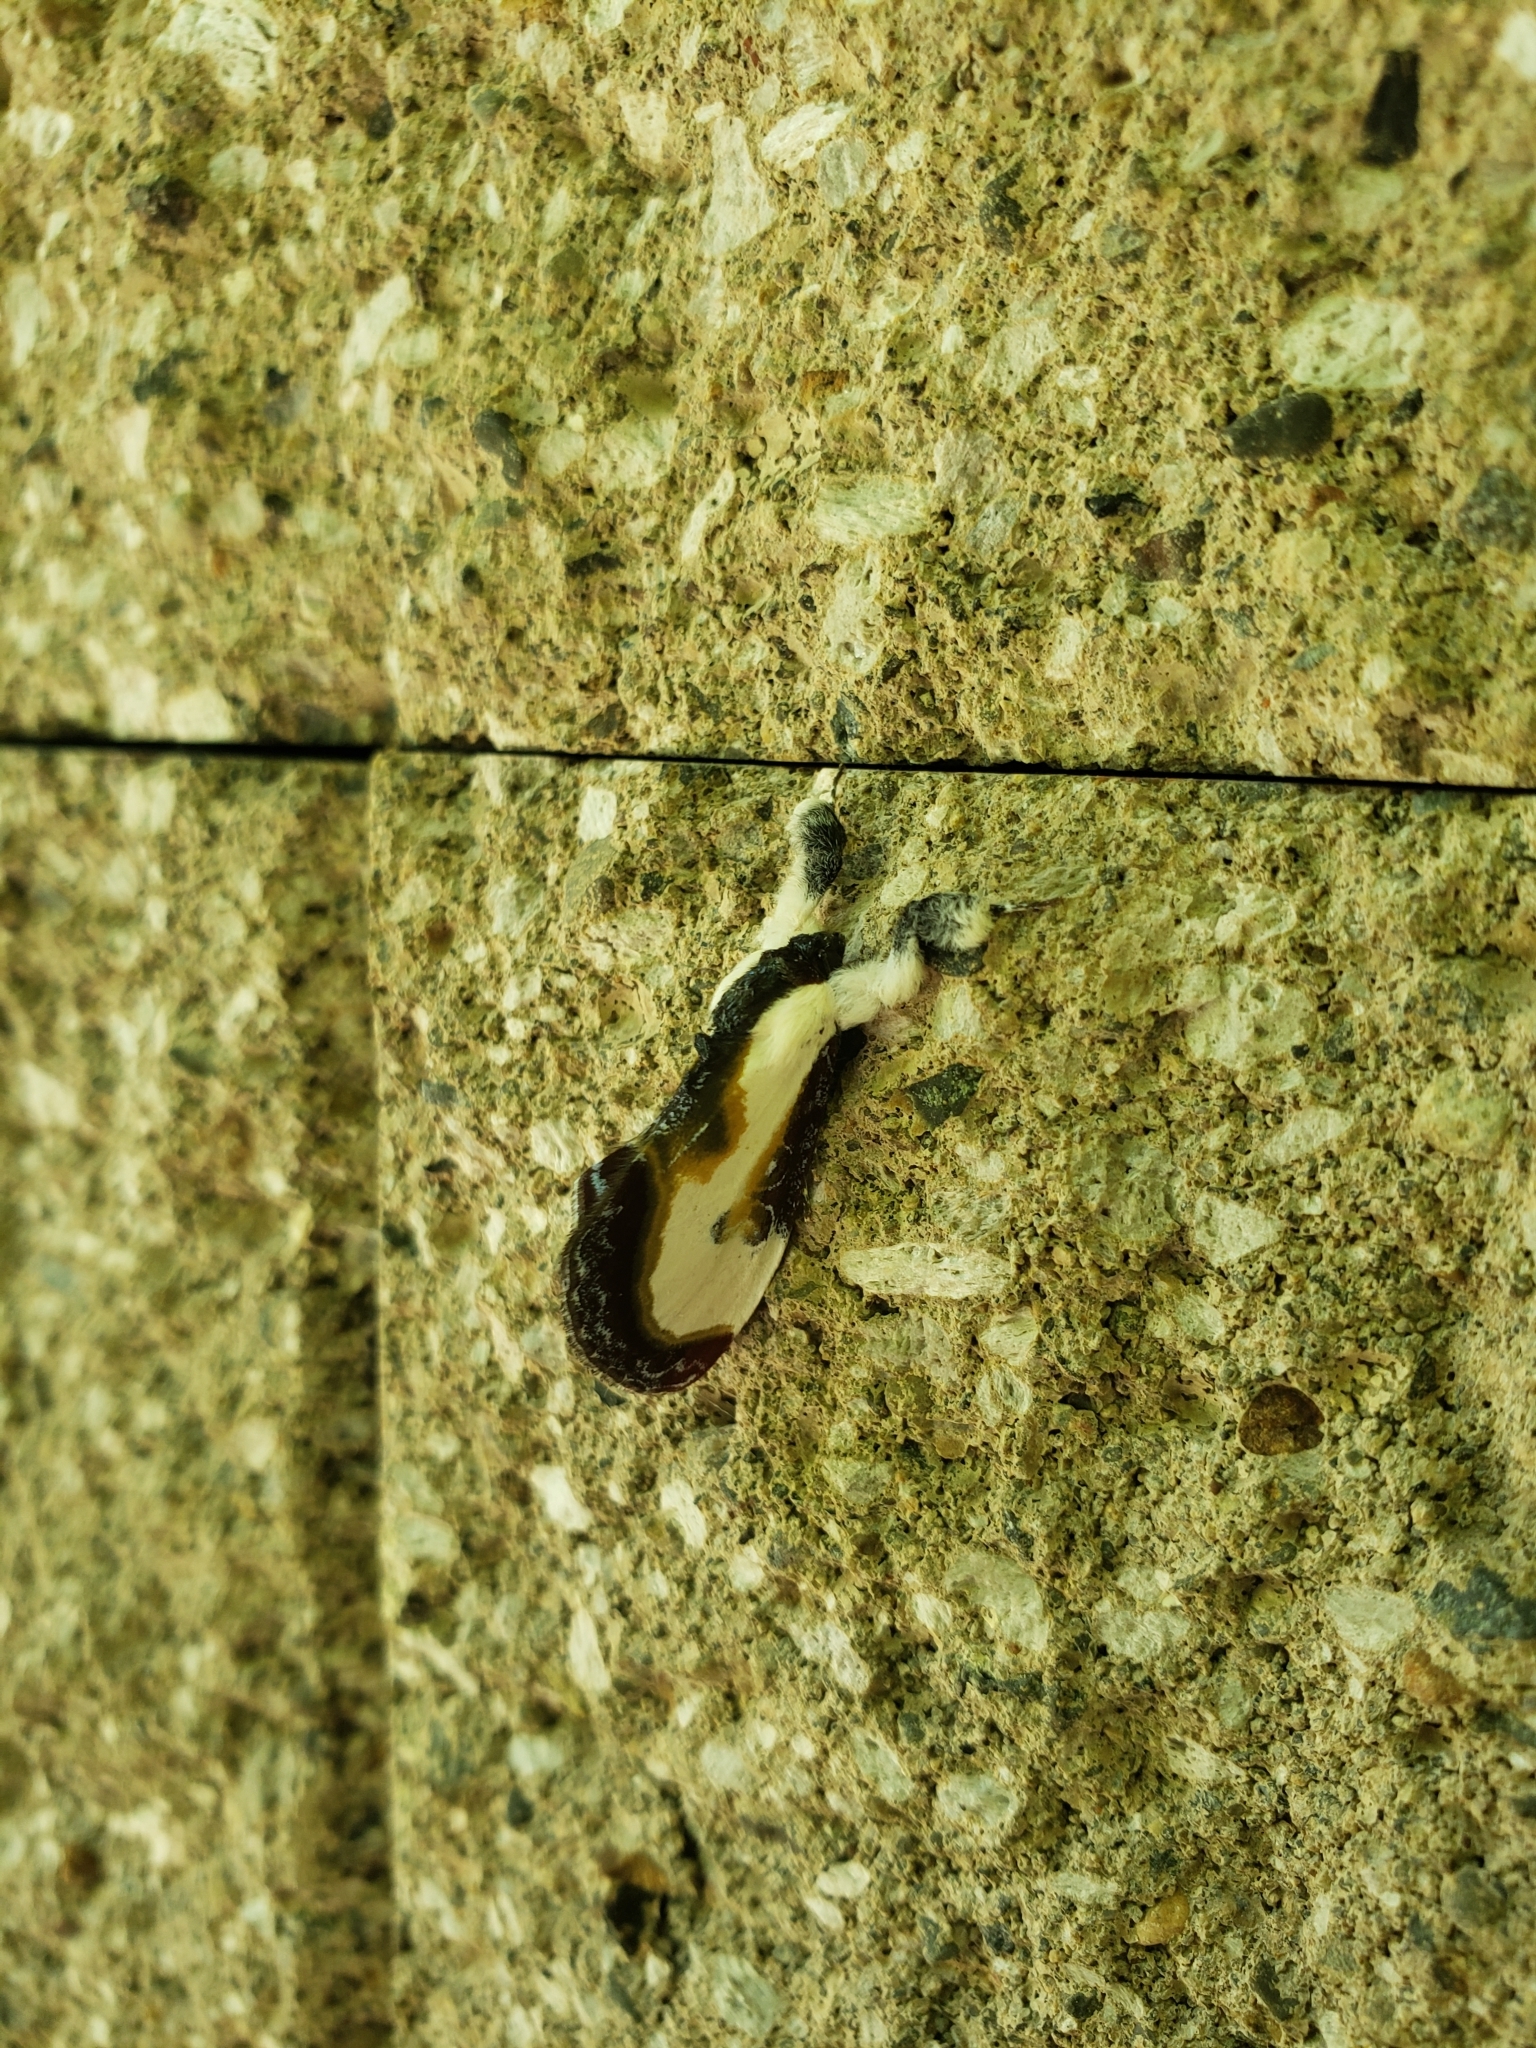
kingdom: Animalia
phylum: Arthropoda
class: Insecta
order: Lepidoptera
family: Noctuidae
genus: Eudryas
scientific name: Eudryas grata
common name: Beautiful wood-nymph
